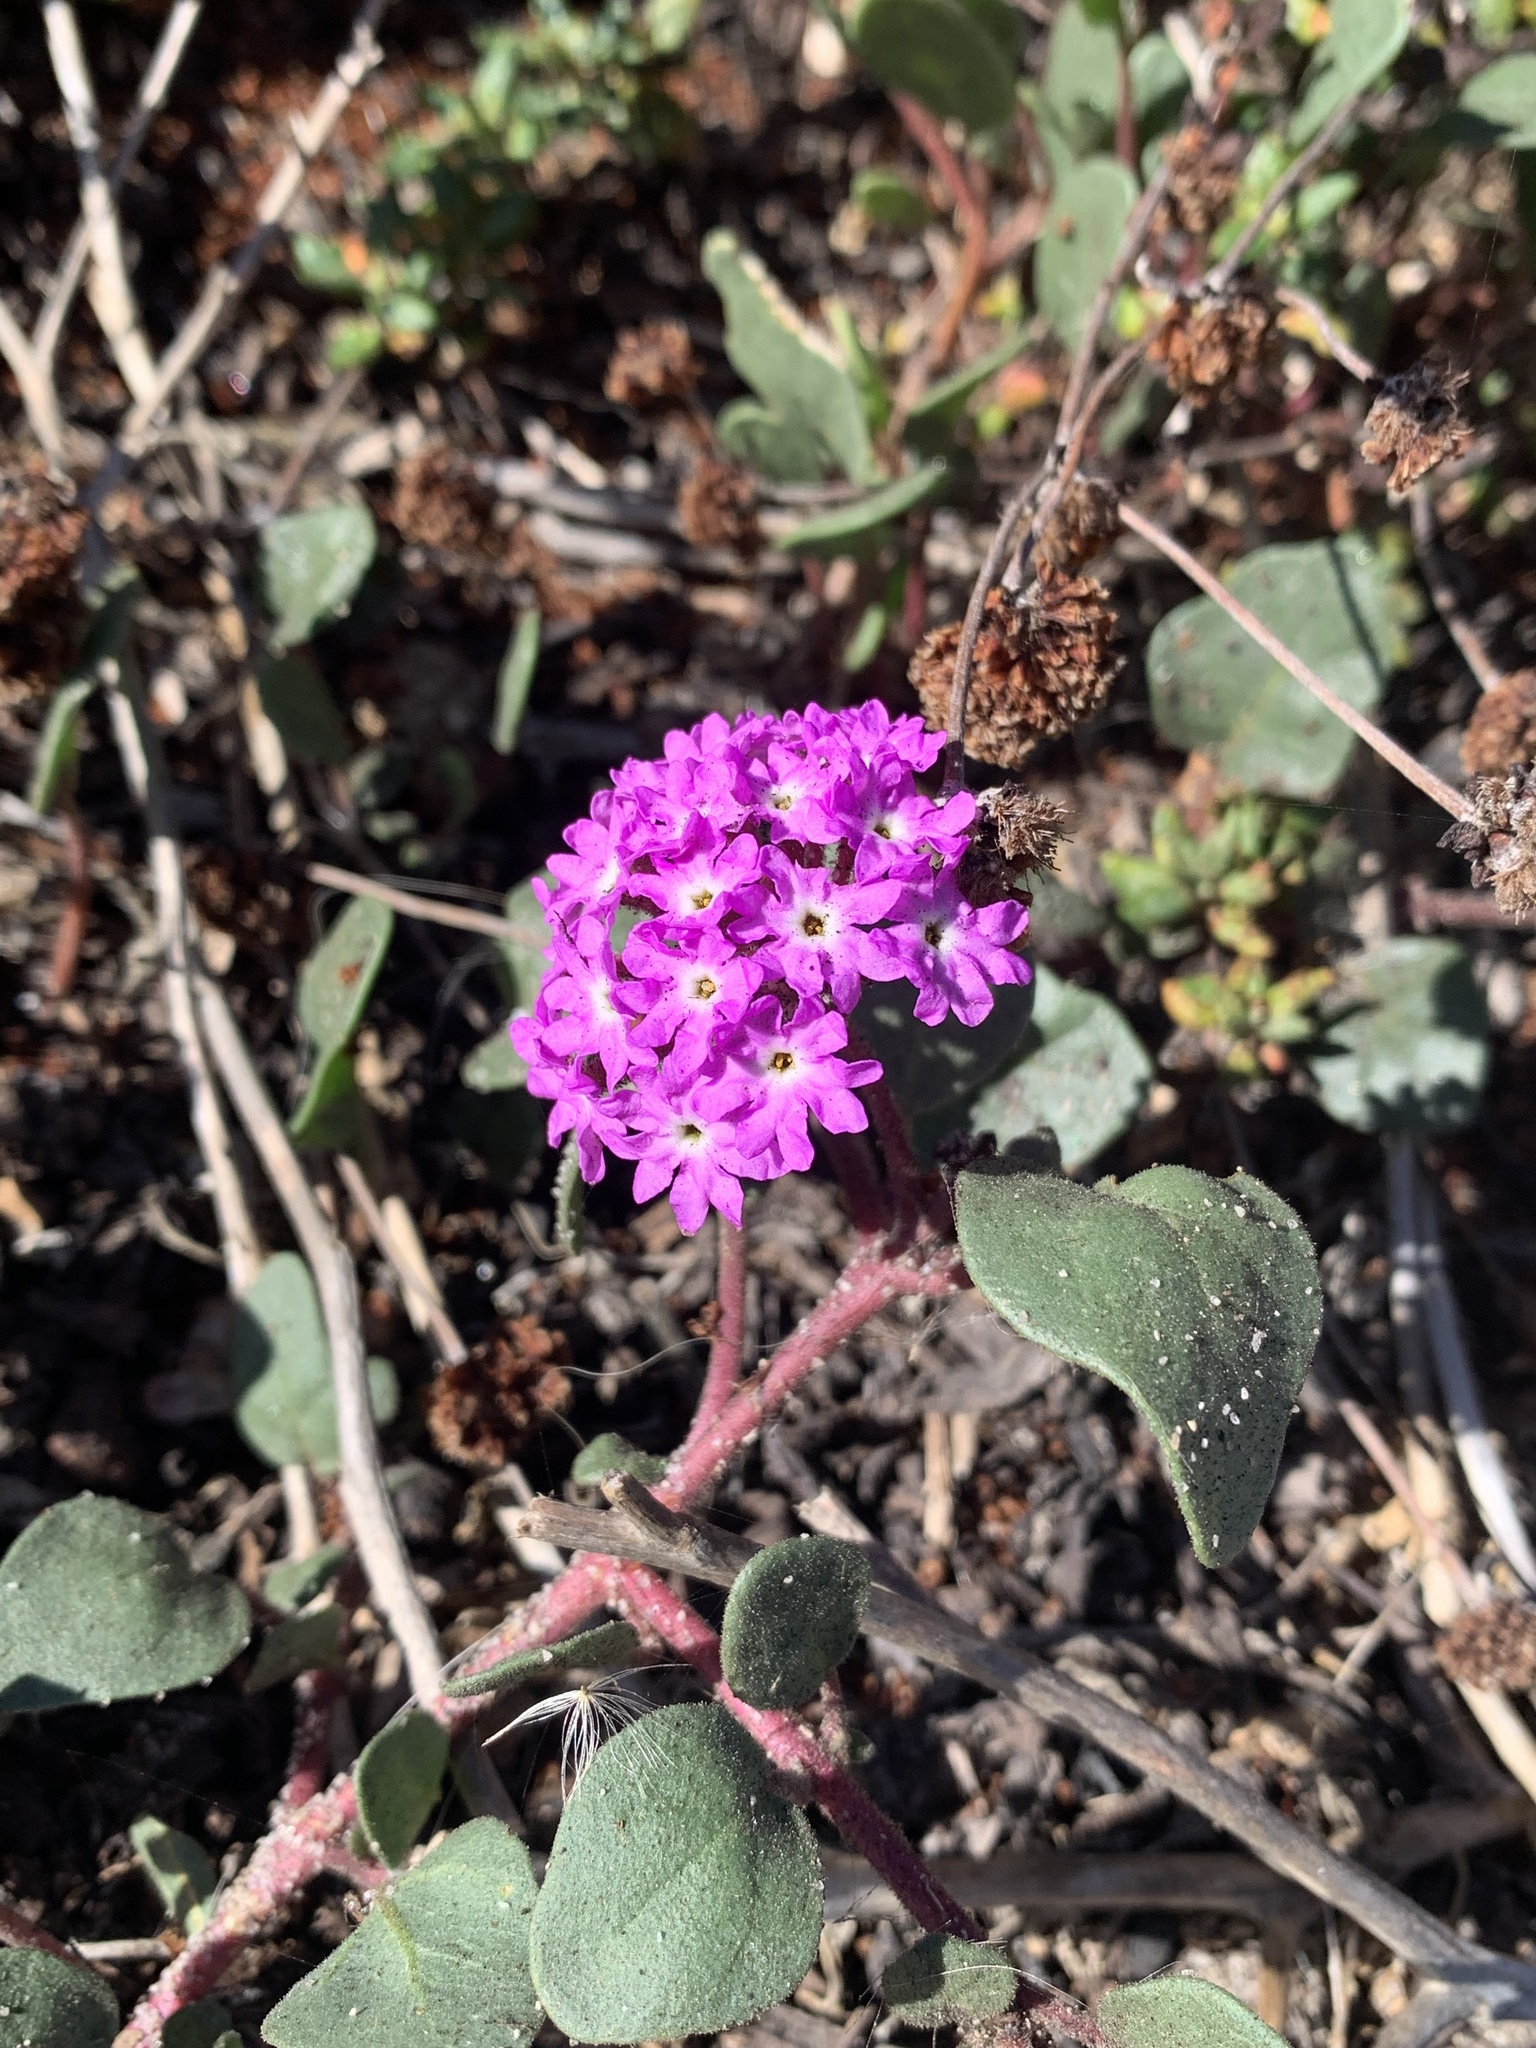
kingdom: Plantae
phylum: Tracheophyta
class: Magnoliopsida
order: Caryophyllales
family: Nyctaginaceae
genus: Abronia
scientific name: Abronia umbellata
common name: Sand-verbena
